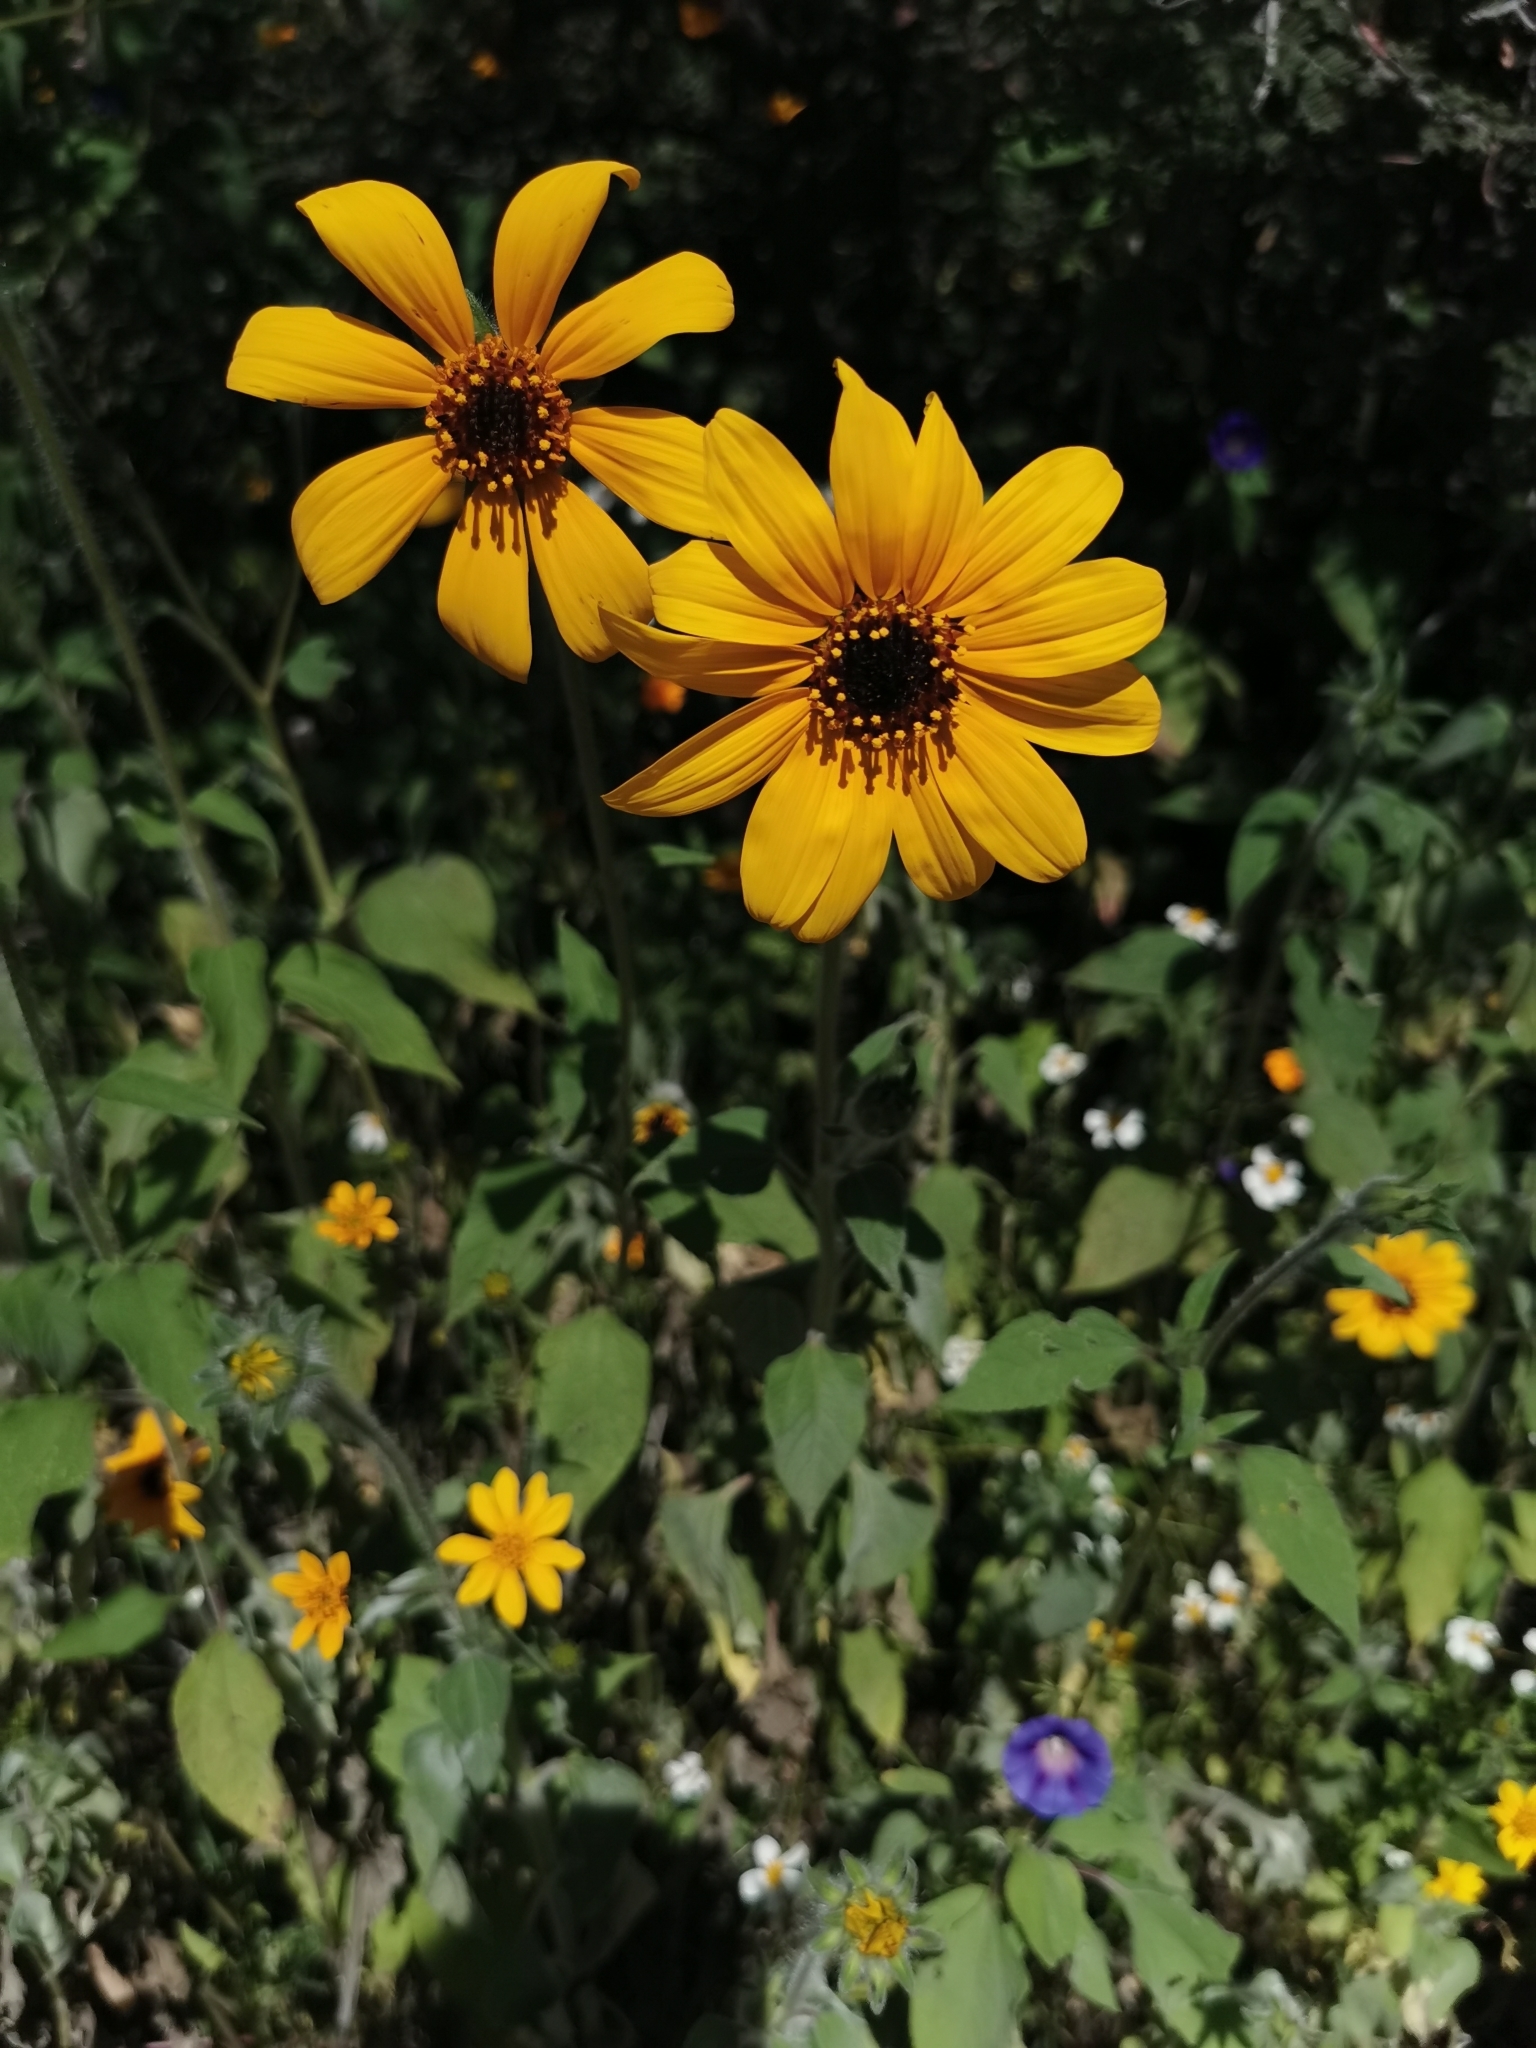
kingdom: Plantae
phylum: Tracheophyta
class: Magnoliopsida
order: Asterales
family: Asteraceae
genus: Tithonia
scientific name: Tithonia tubaeformis
